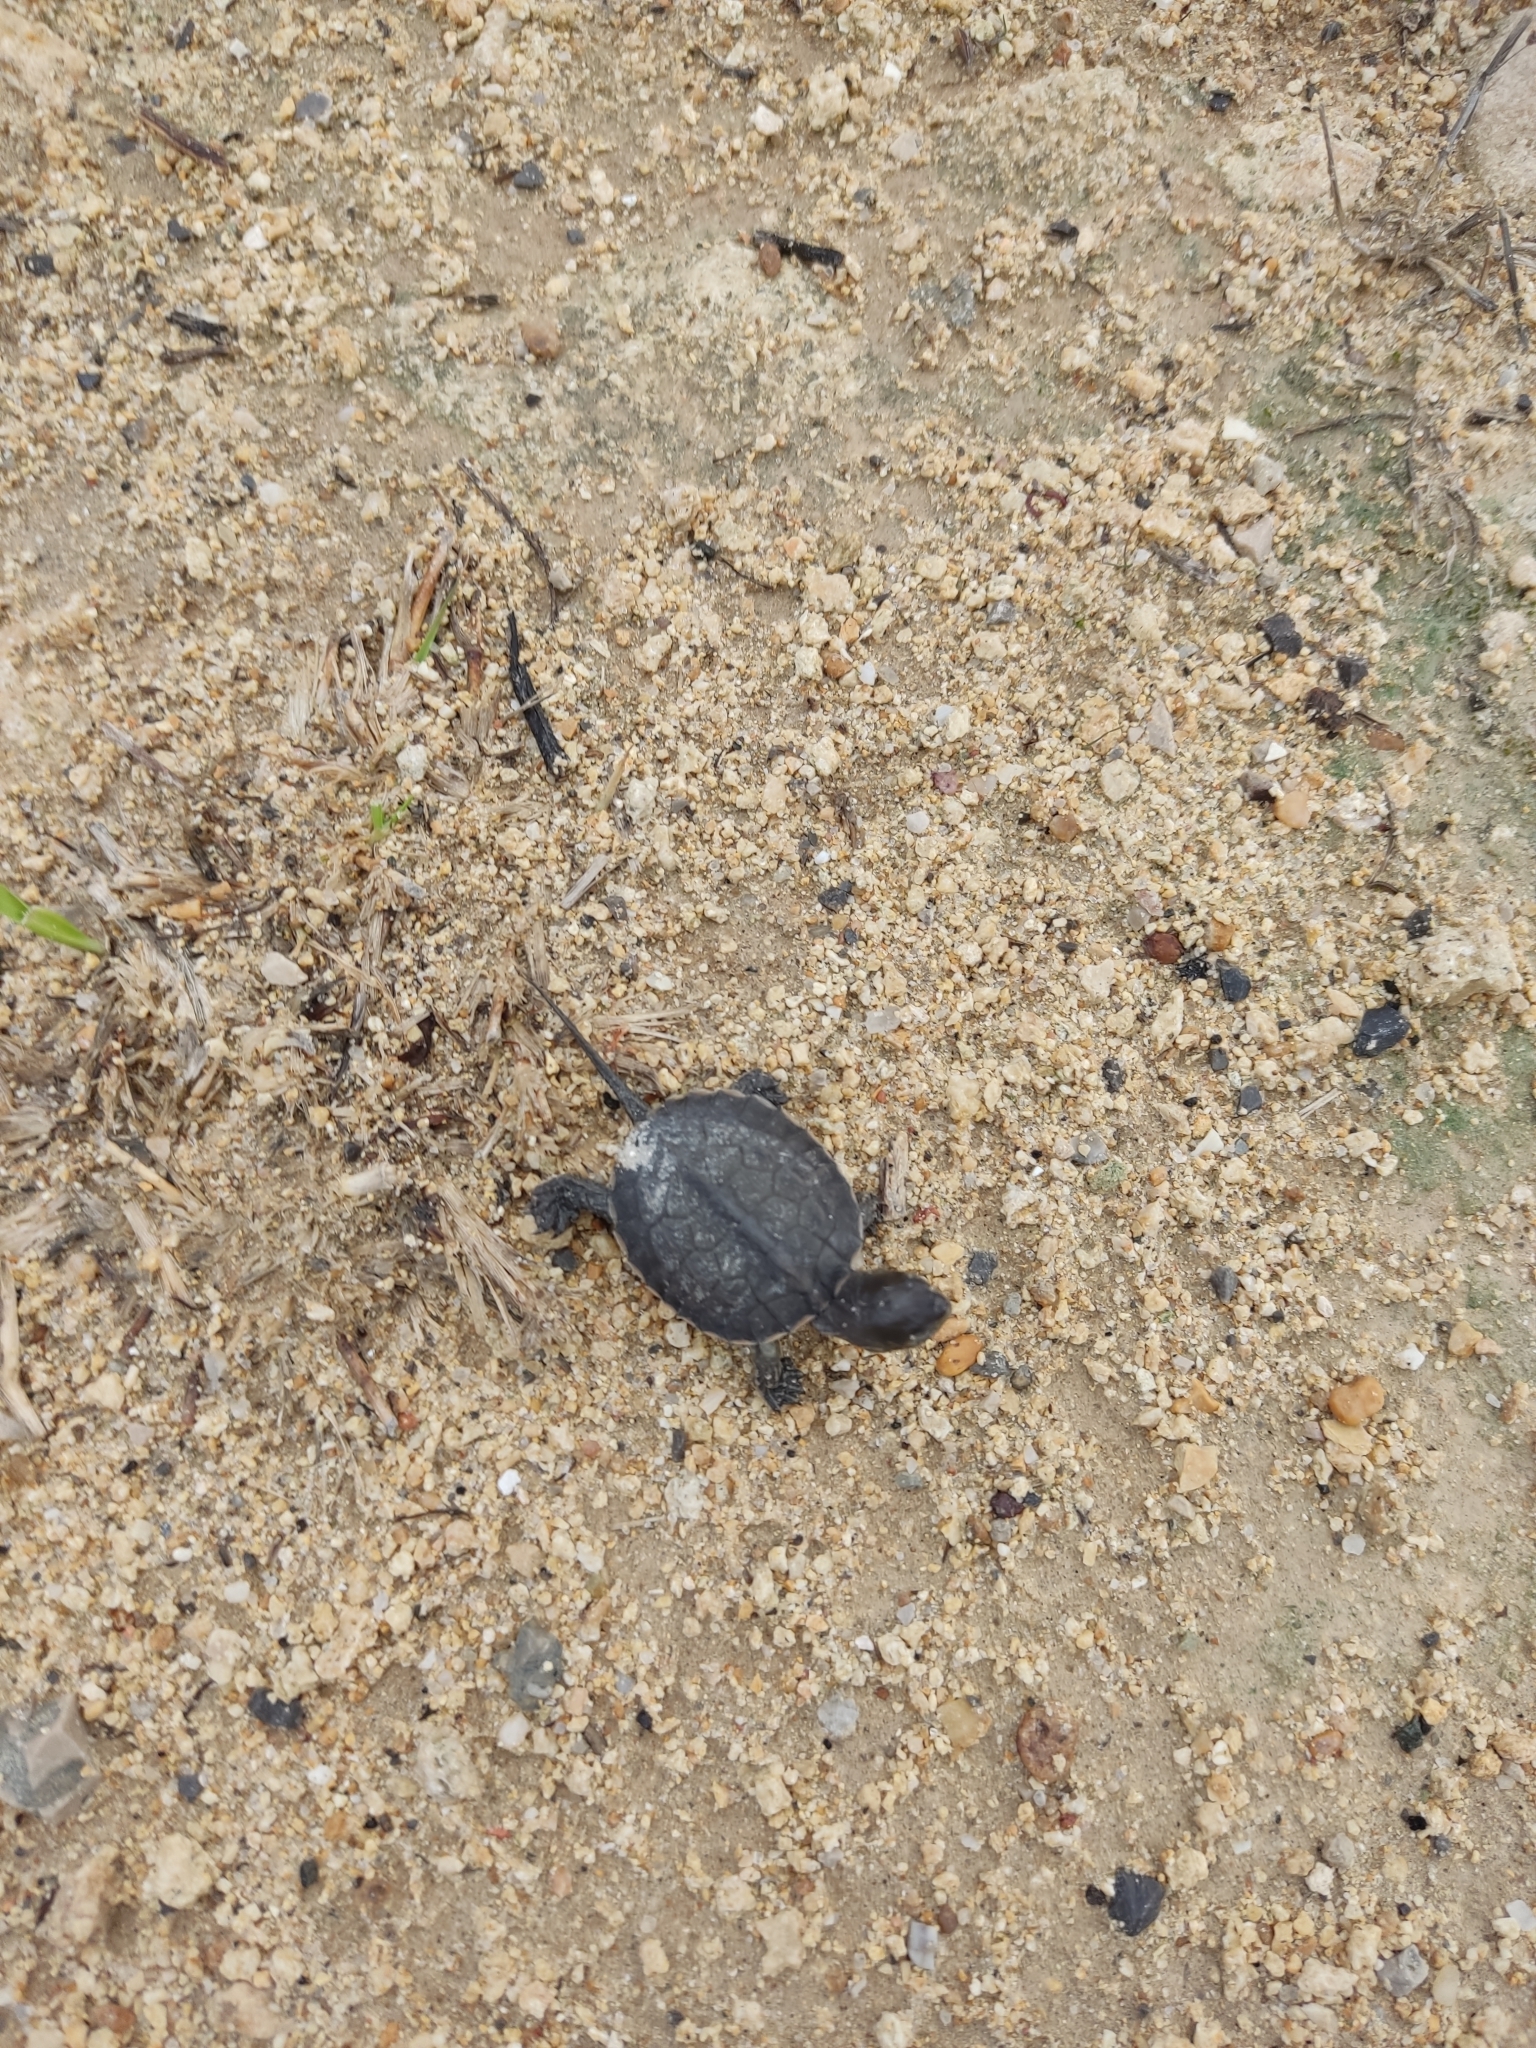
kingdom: Animalia
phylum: Chordata
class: Testudines
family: Geoemydidae
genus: Mauremys
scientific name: Mauremys leprosa
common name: Mediterranean pond turtle
